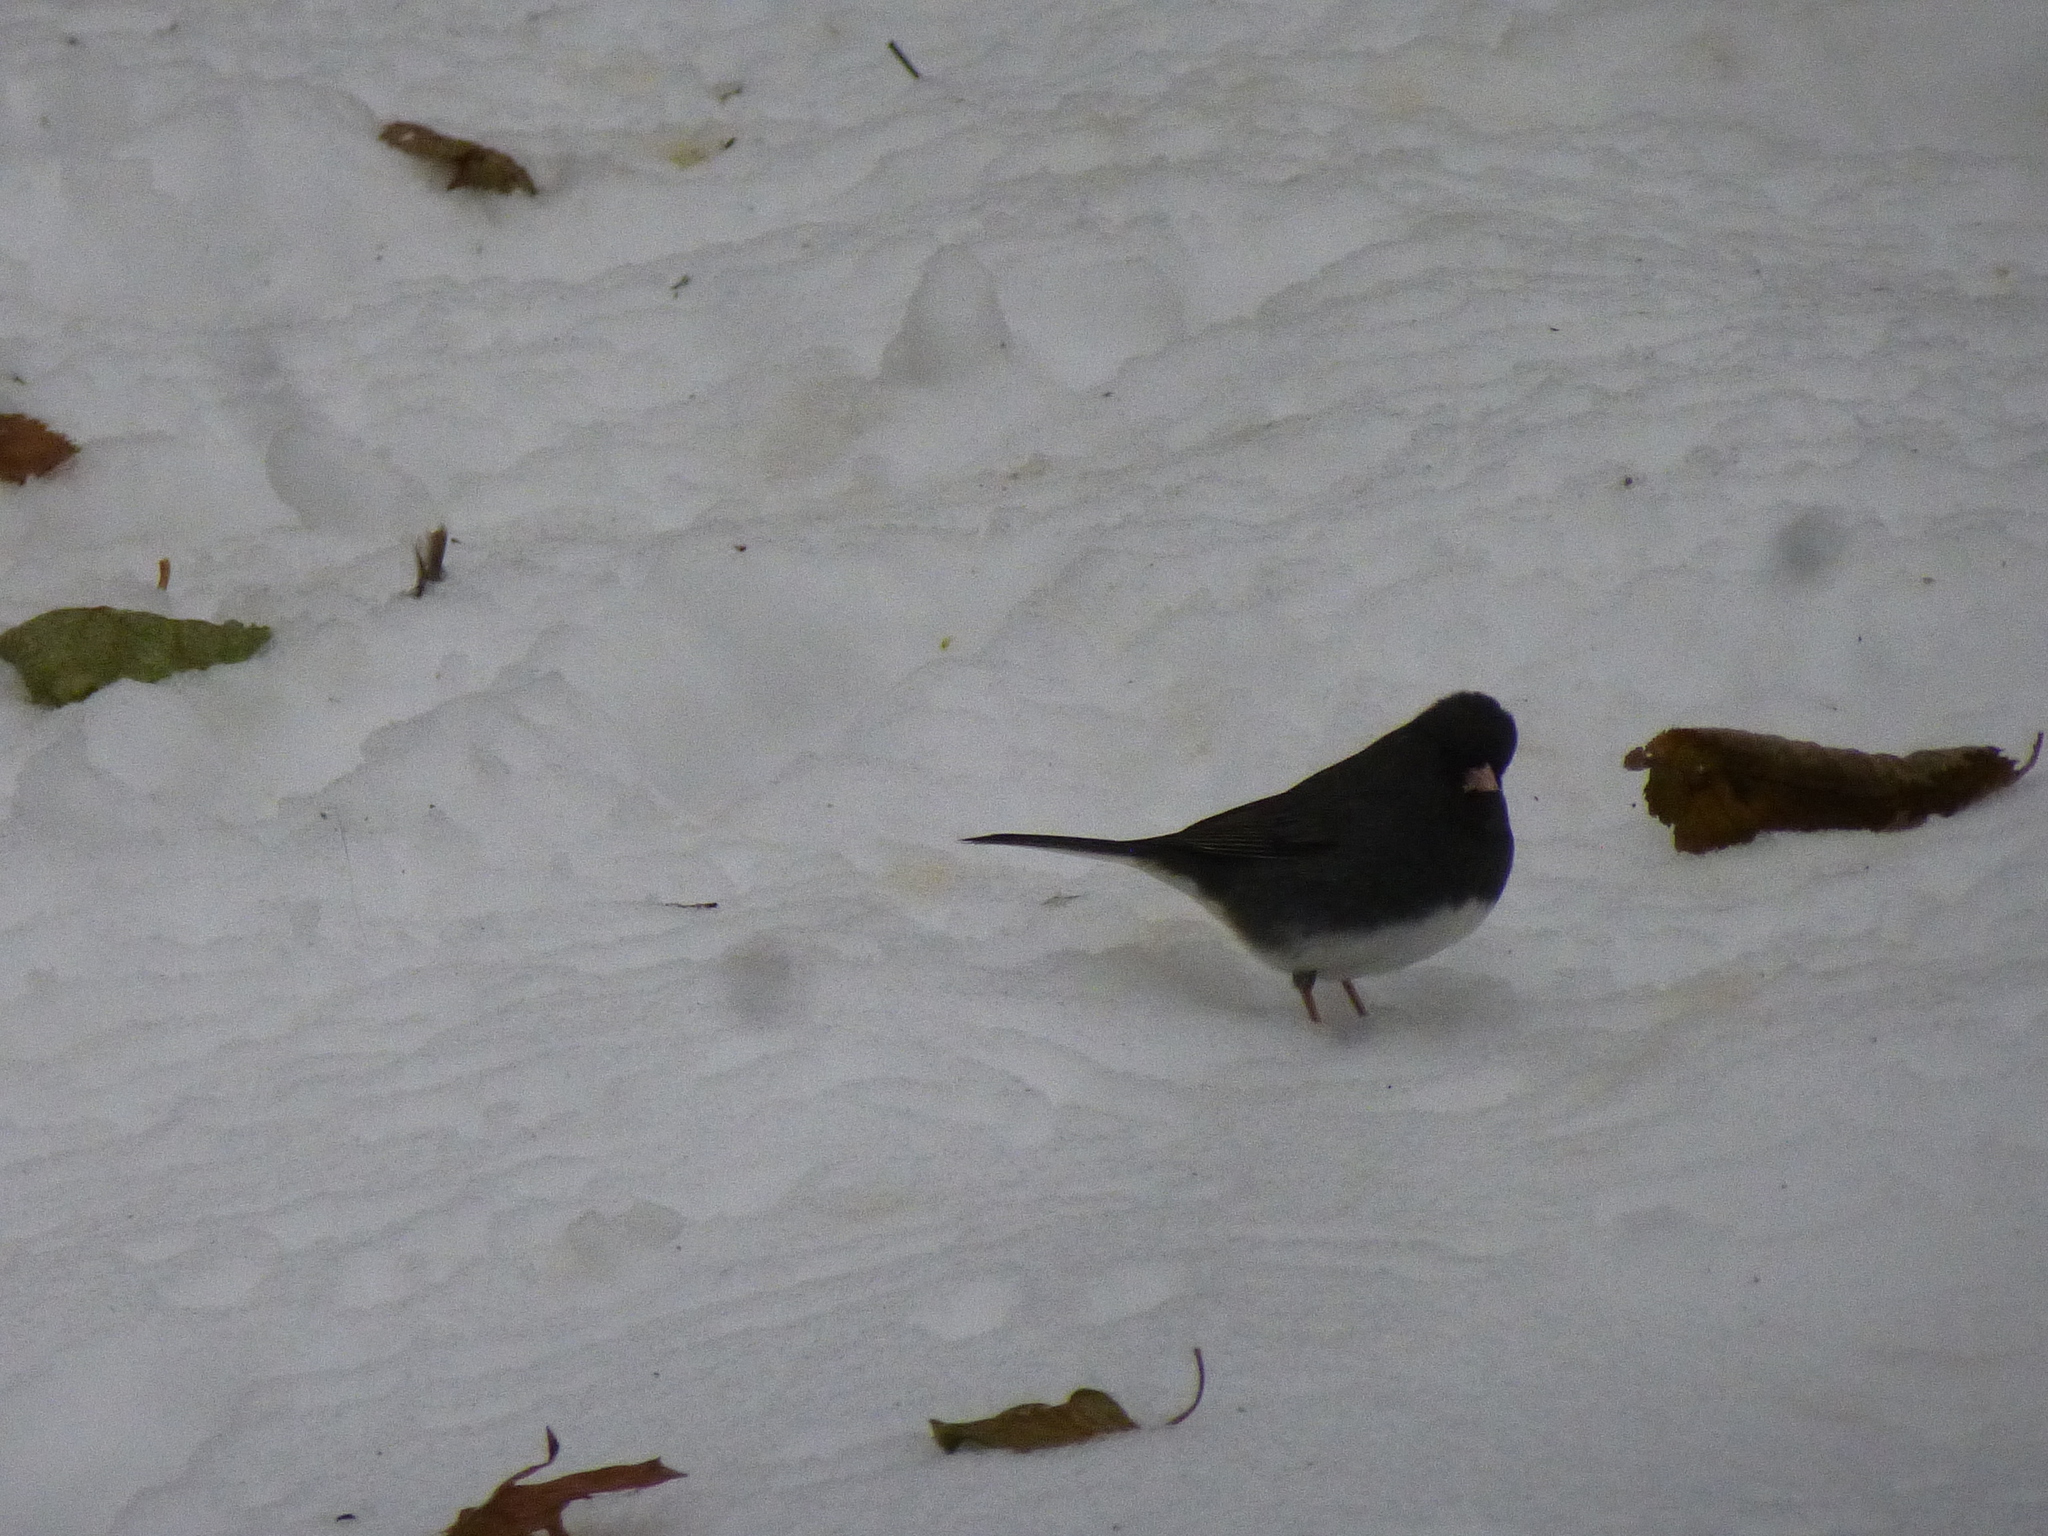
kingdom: Animalia
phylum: Chordata
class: Aves
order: Passeriformes
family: Passerellidae
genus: Junco
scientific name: Junco hyemalis
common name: Dark-eyed junco
